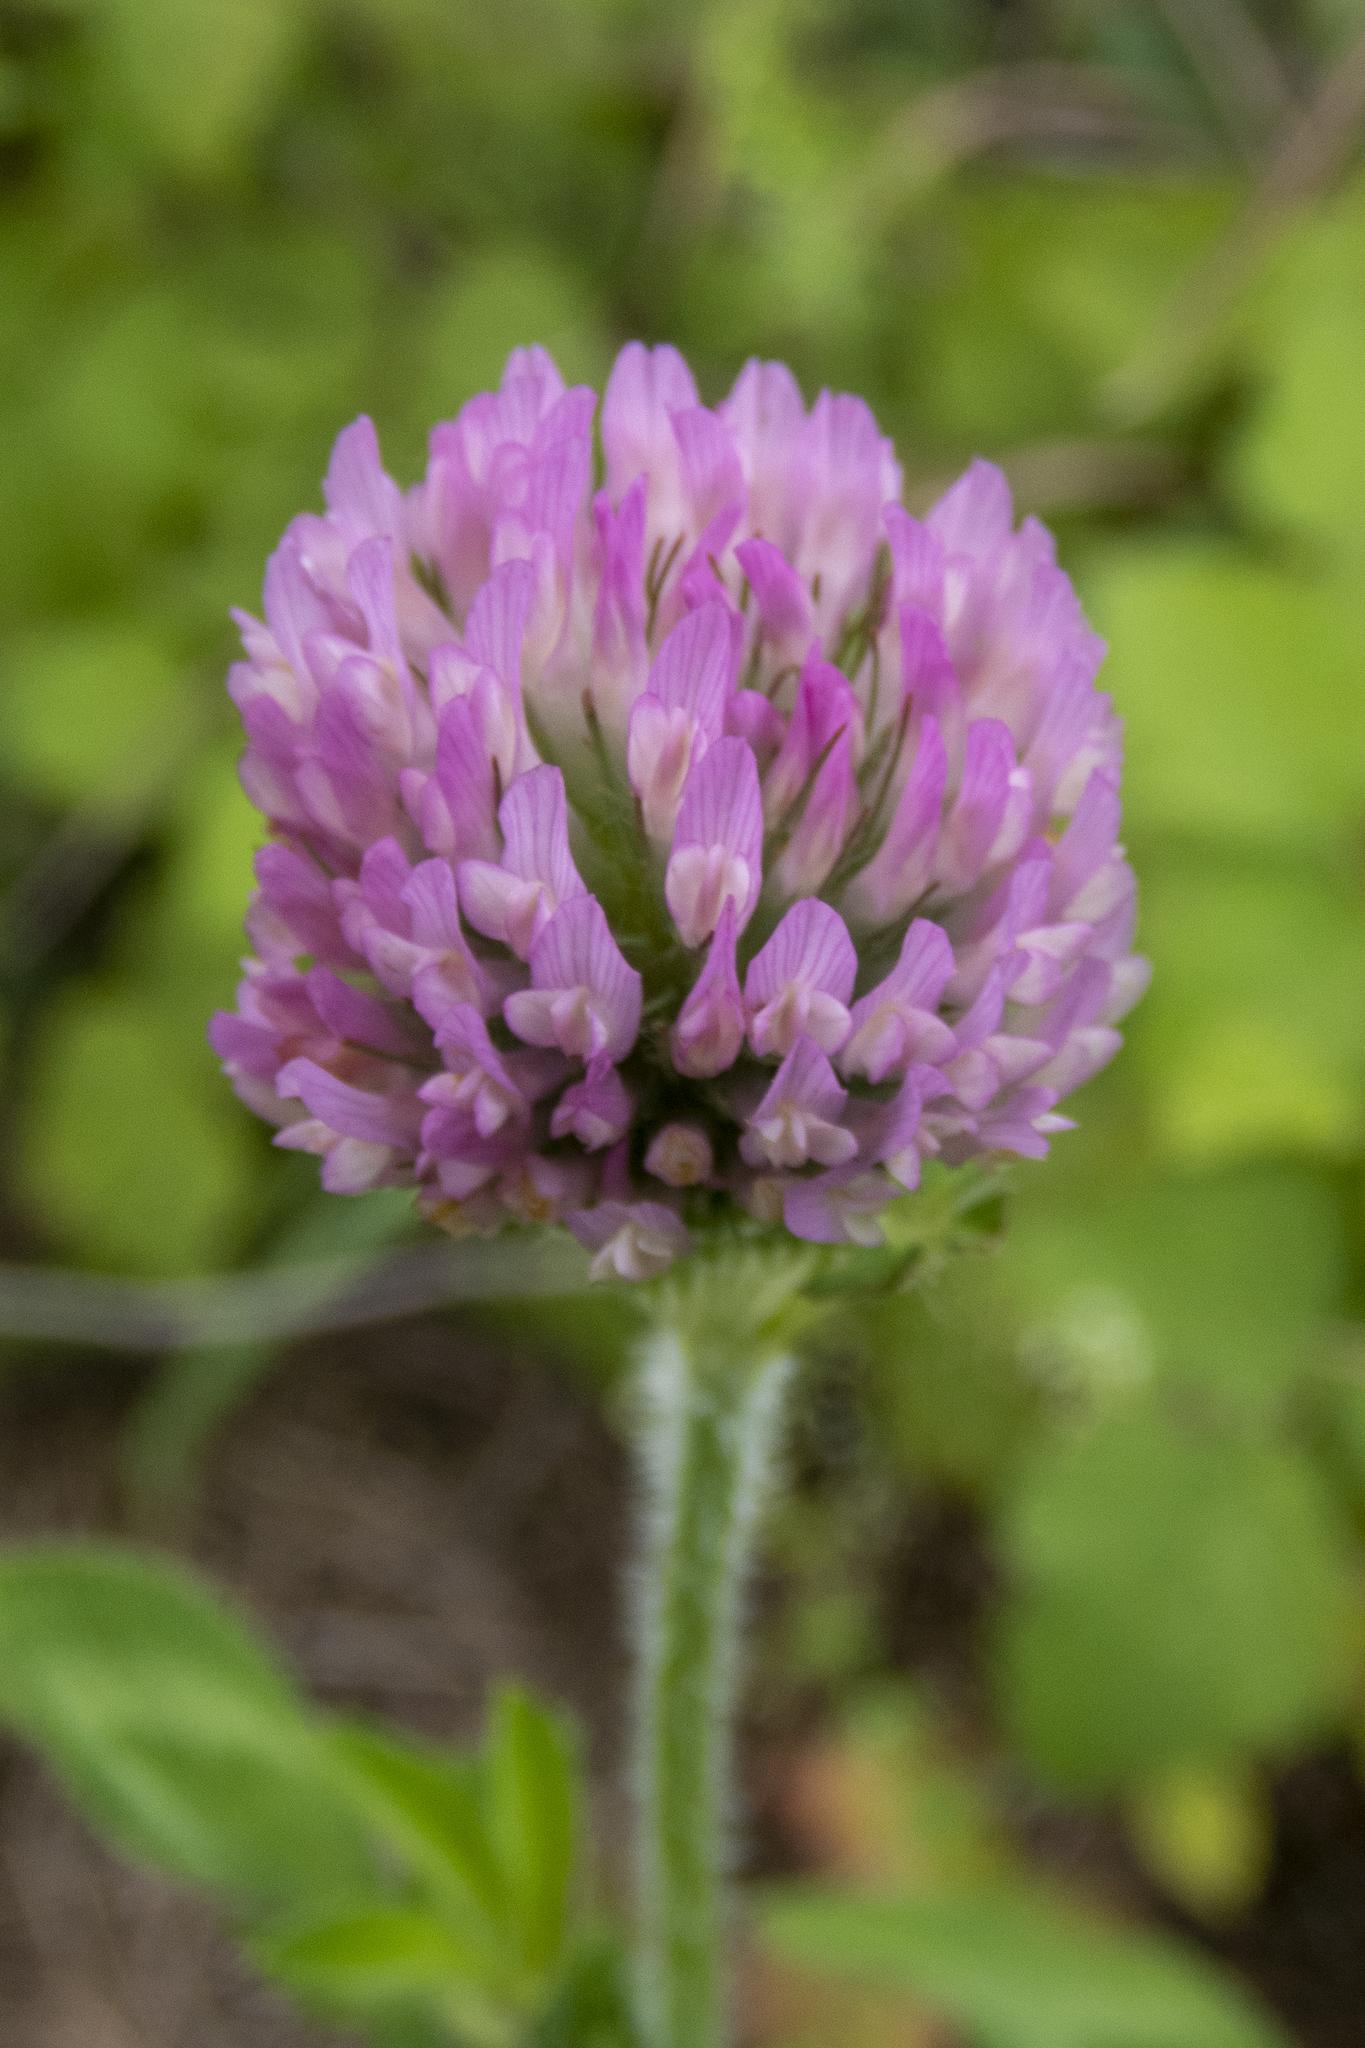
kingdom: Plantae
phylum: Tracheophyta
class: Magnoliopsida
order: Fabales
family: Fabaceae
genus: Trifolium
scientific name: Trifolium pratense
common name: Red clover
